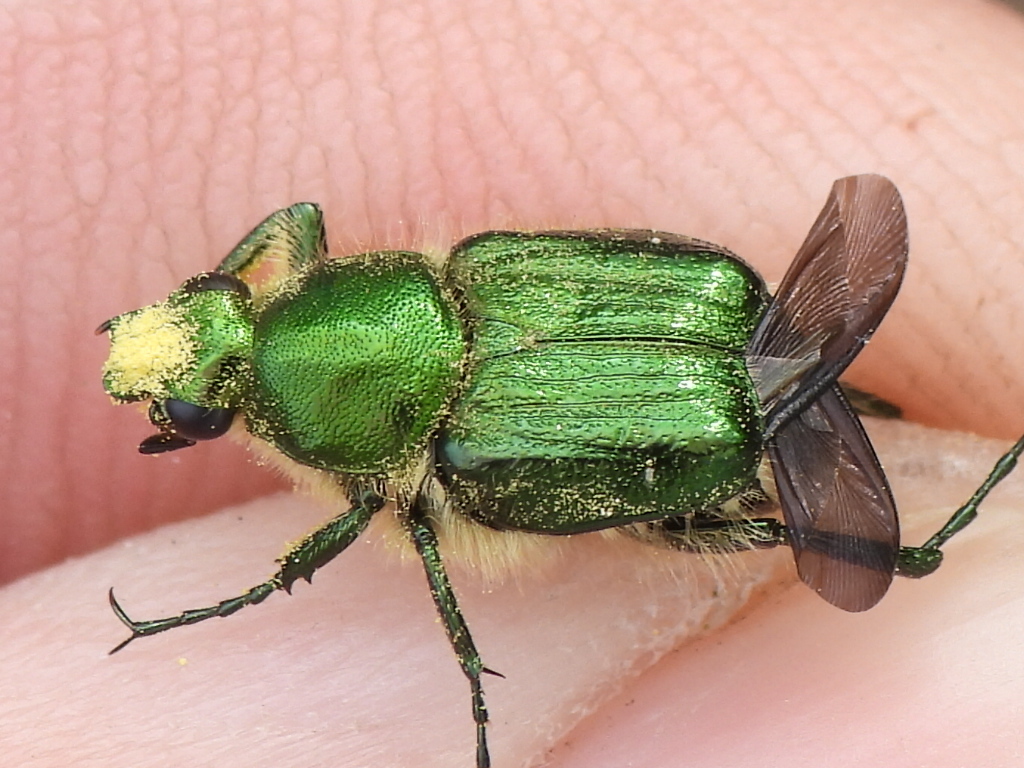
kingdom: Animalia
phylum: Arthropoda
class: Insecta
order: Coleoptera
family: Scarabaeidae
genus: Trichiotinus
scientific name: Trichiotinus lunulatus
